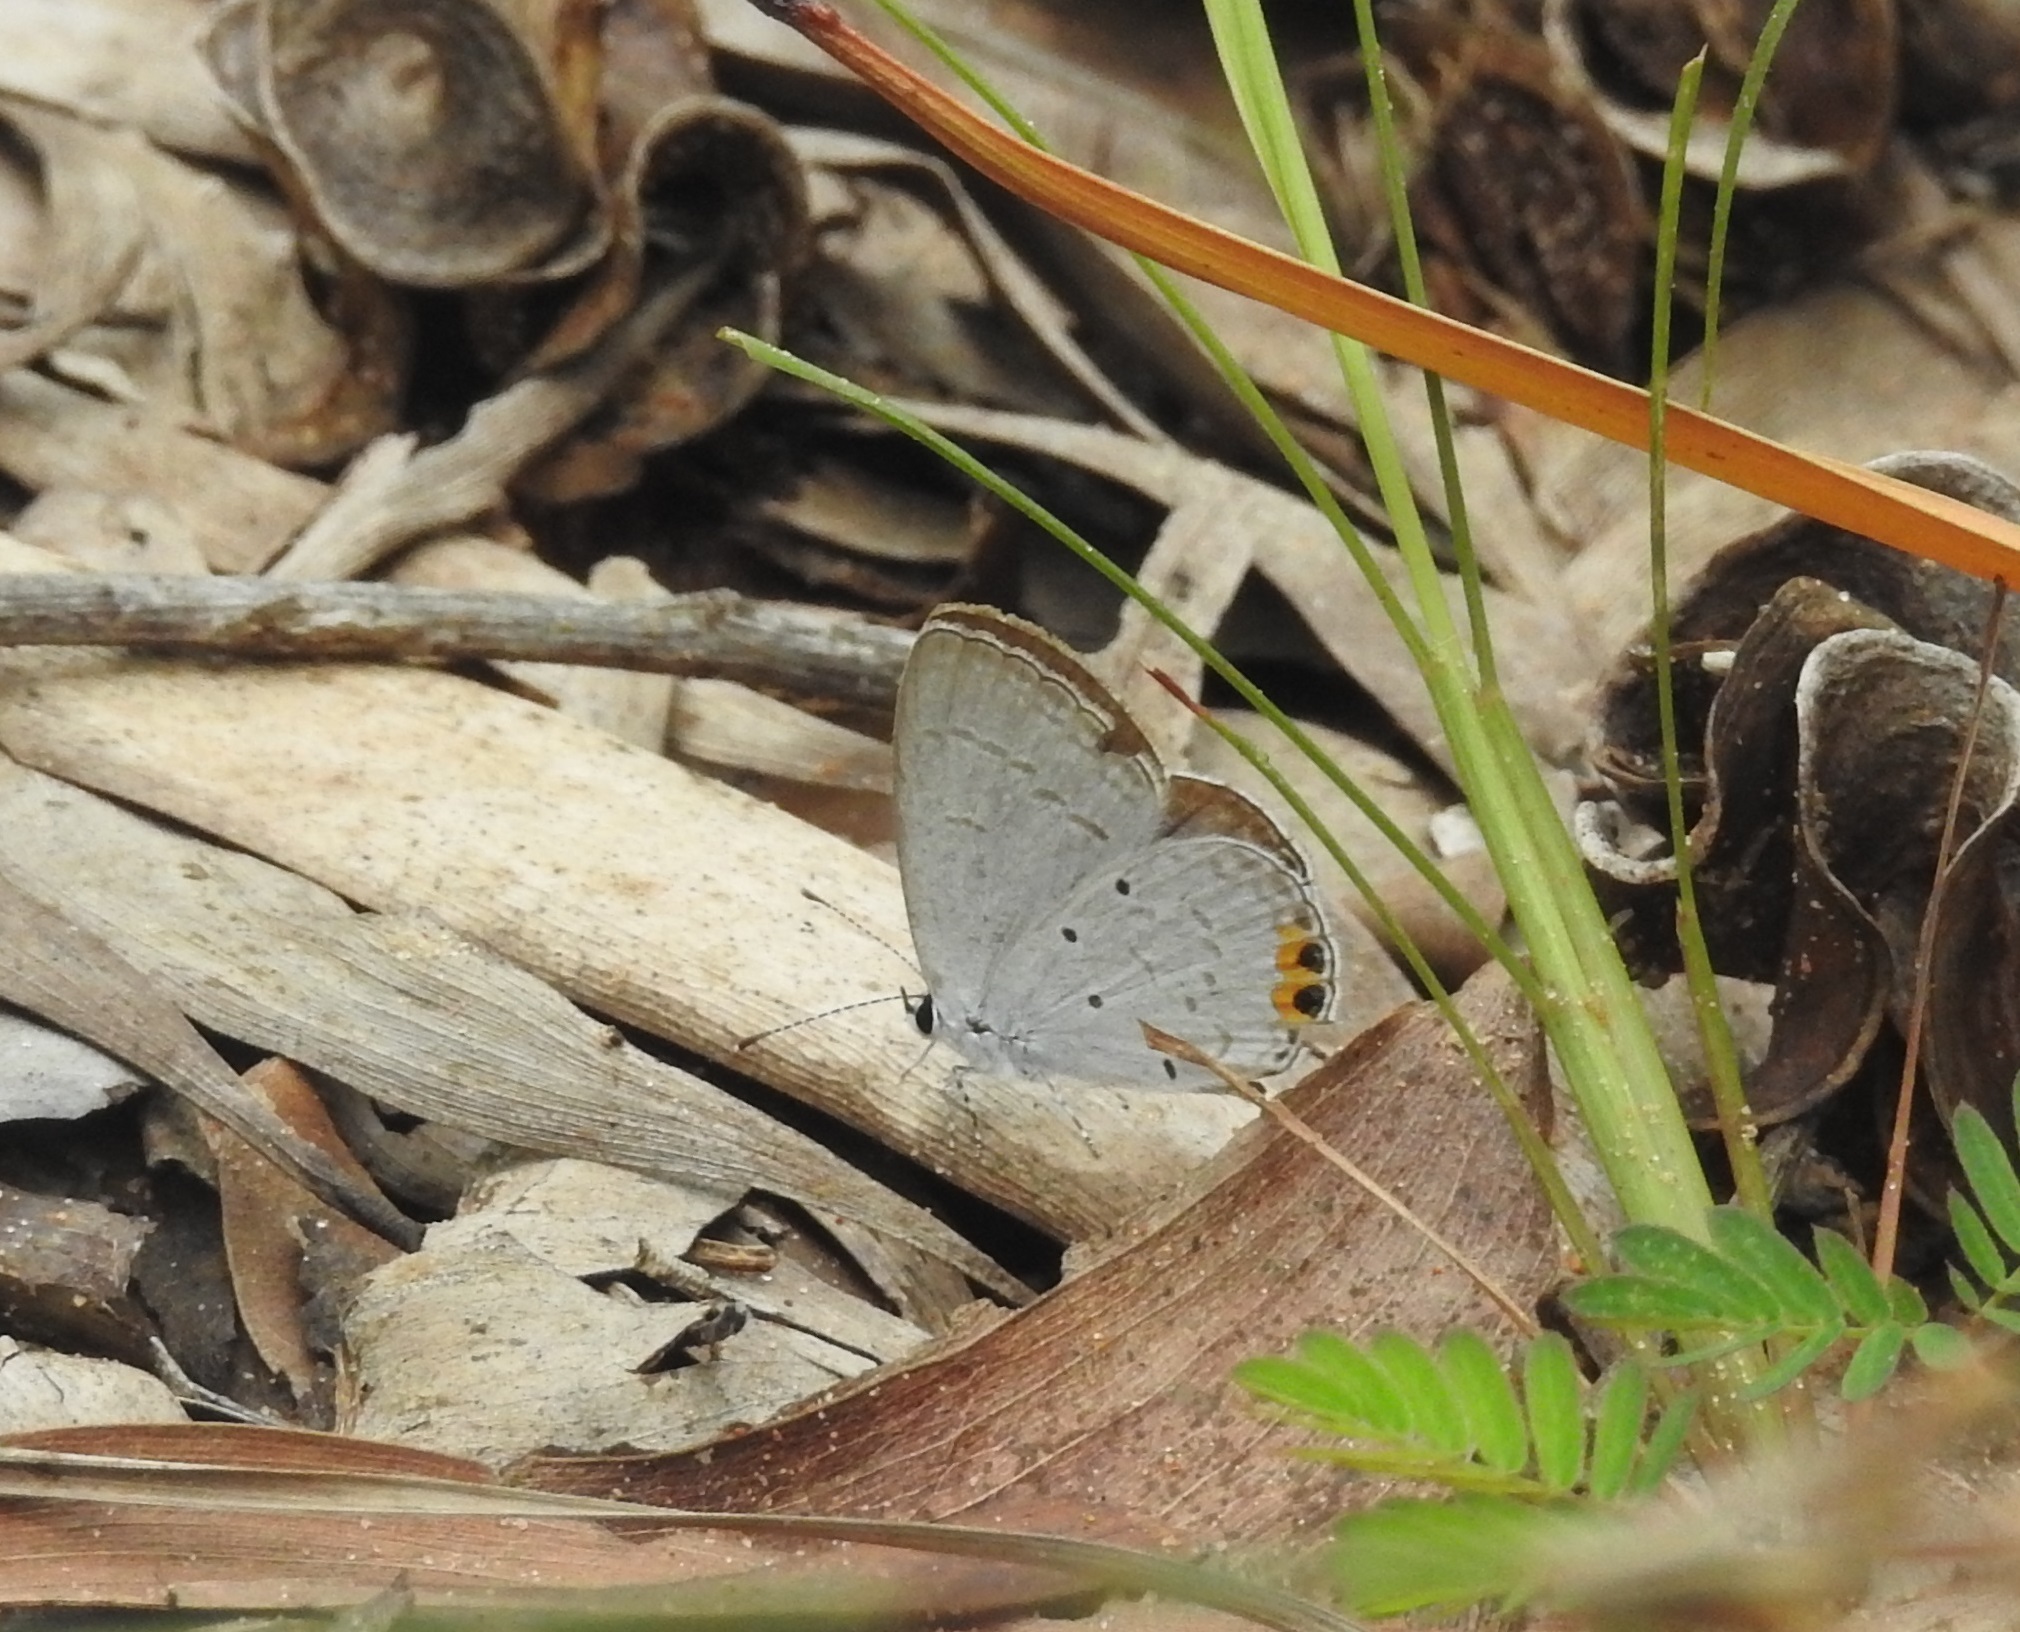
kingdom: Animalia
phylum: Arthropoda
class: Insecta
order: Lepidoptera
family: Lycaenidae
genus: Everes
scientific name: Everes lacturnus
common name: Orange-tipped pea-blue
